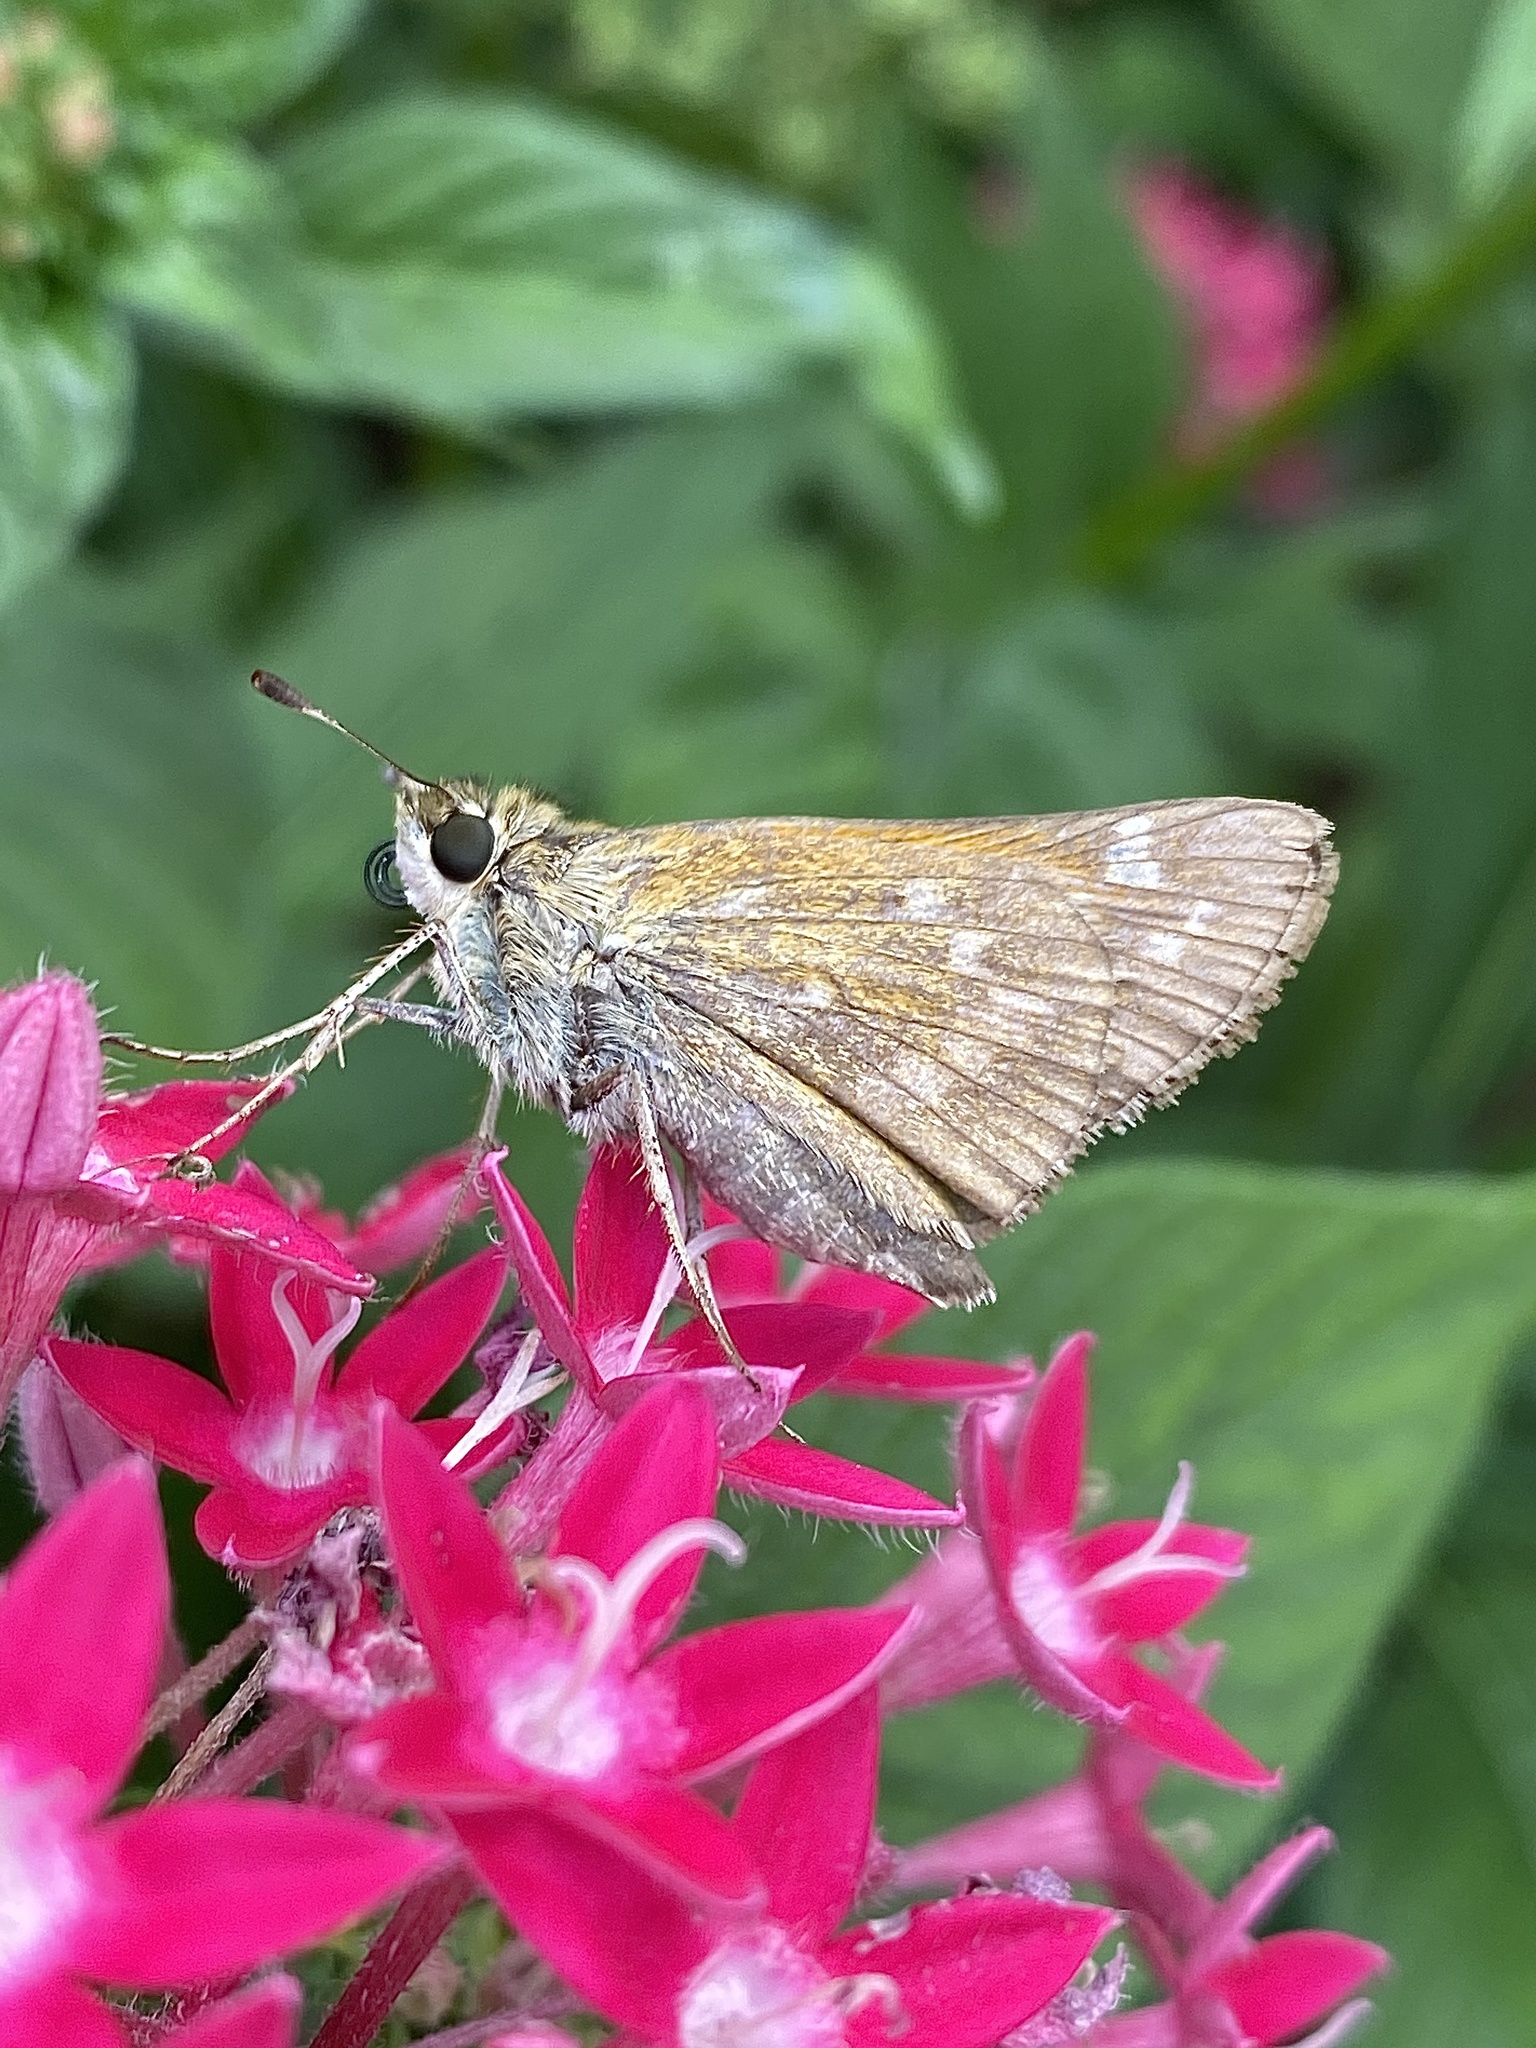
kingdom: Animalia
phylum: Arthropoda
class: Insecta
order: Lepidoptera
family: Hesperiidae
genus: Atalopedes
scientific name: Atalopedes
